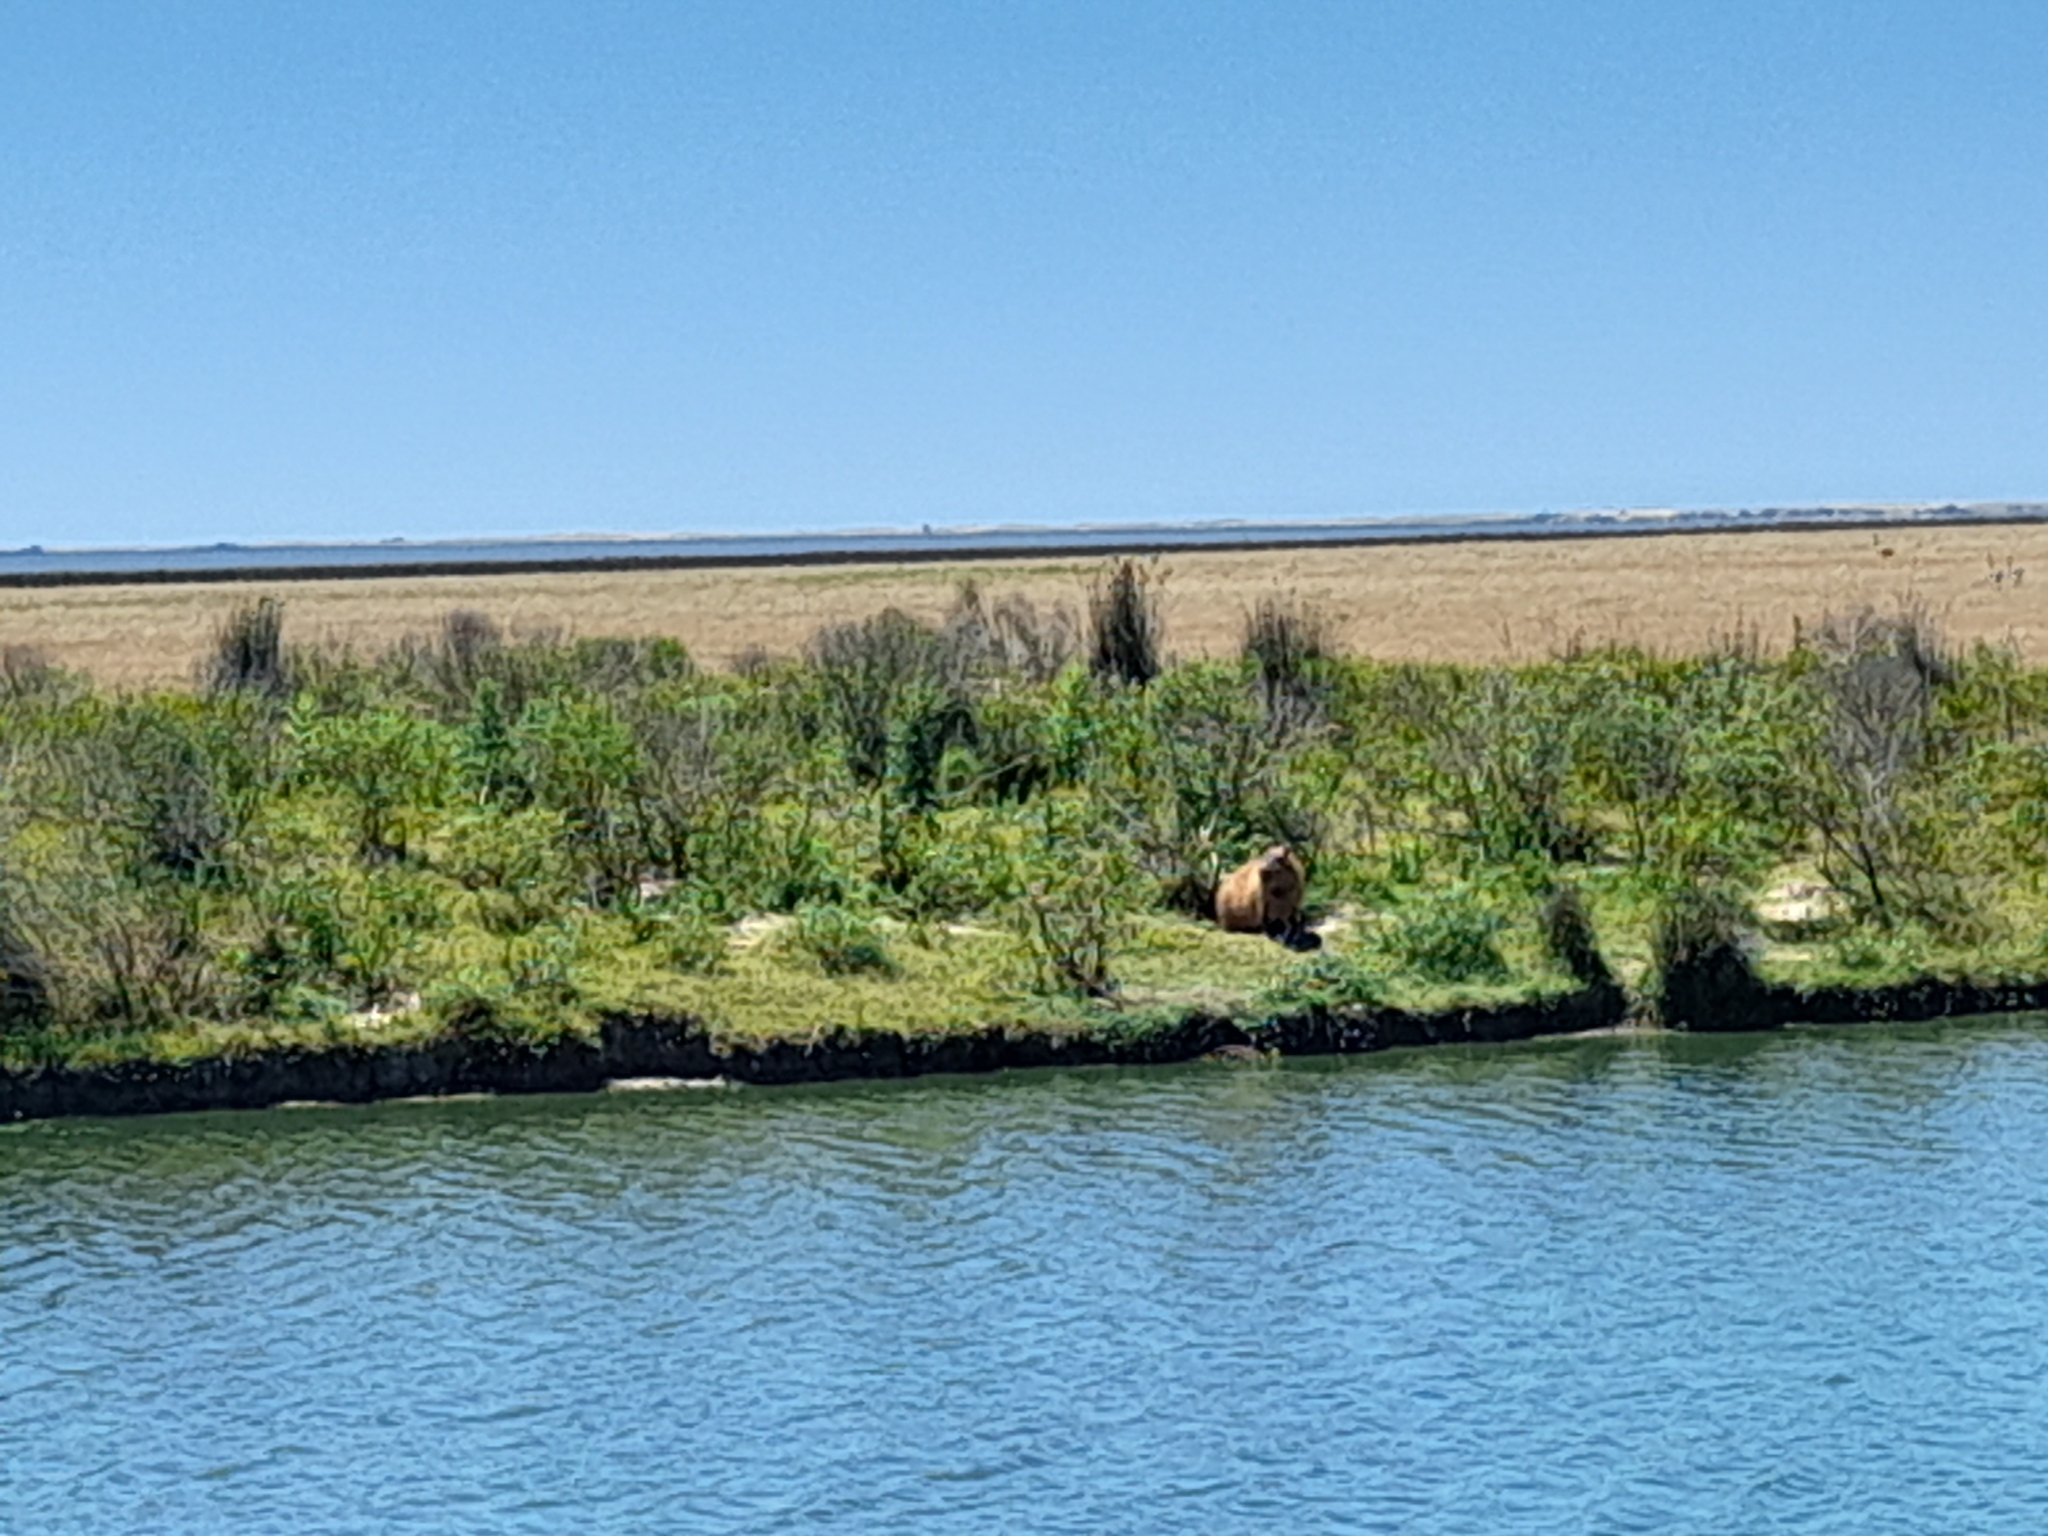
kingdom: Animalia
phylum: Chordata
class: Mammalia
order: Rodentia
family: Caviidae
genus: Hydrochoerus
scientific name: Hydrochoerus hydrochaeris
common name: Capybara
